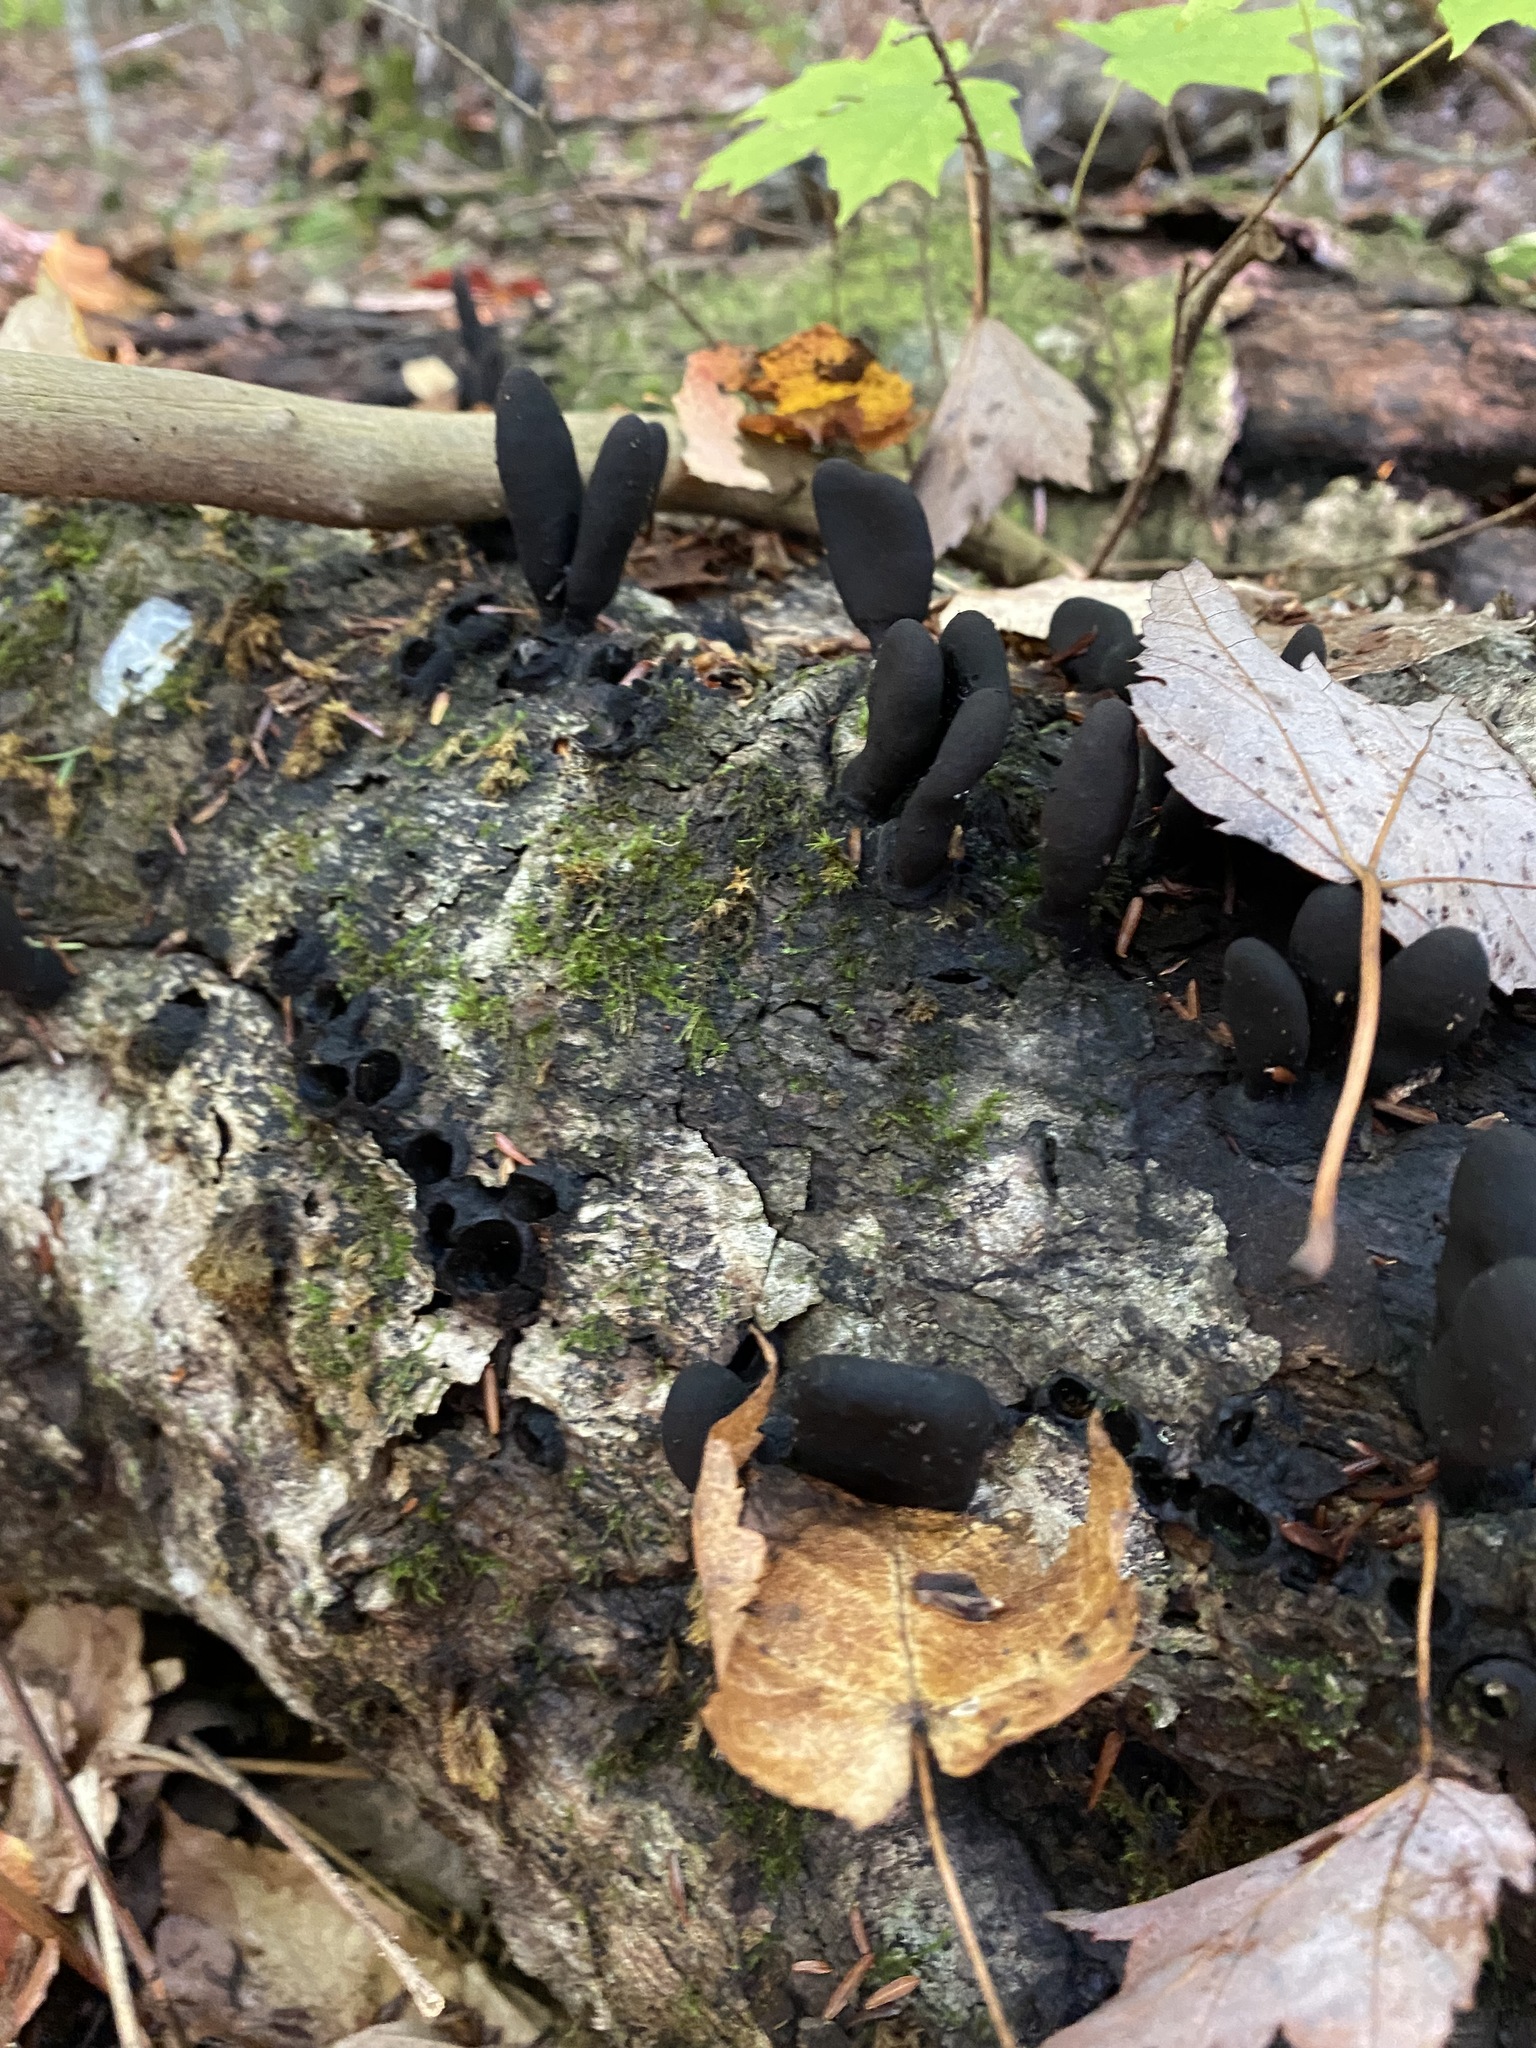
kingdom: Fungi
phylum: Ascomycota
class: Sordariomycetes
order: Xylariales
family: Xylariaceae
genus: Xylaria
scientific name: Xylaria polymorpha
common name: Dead man's fingers
